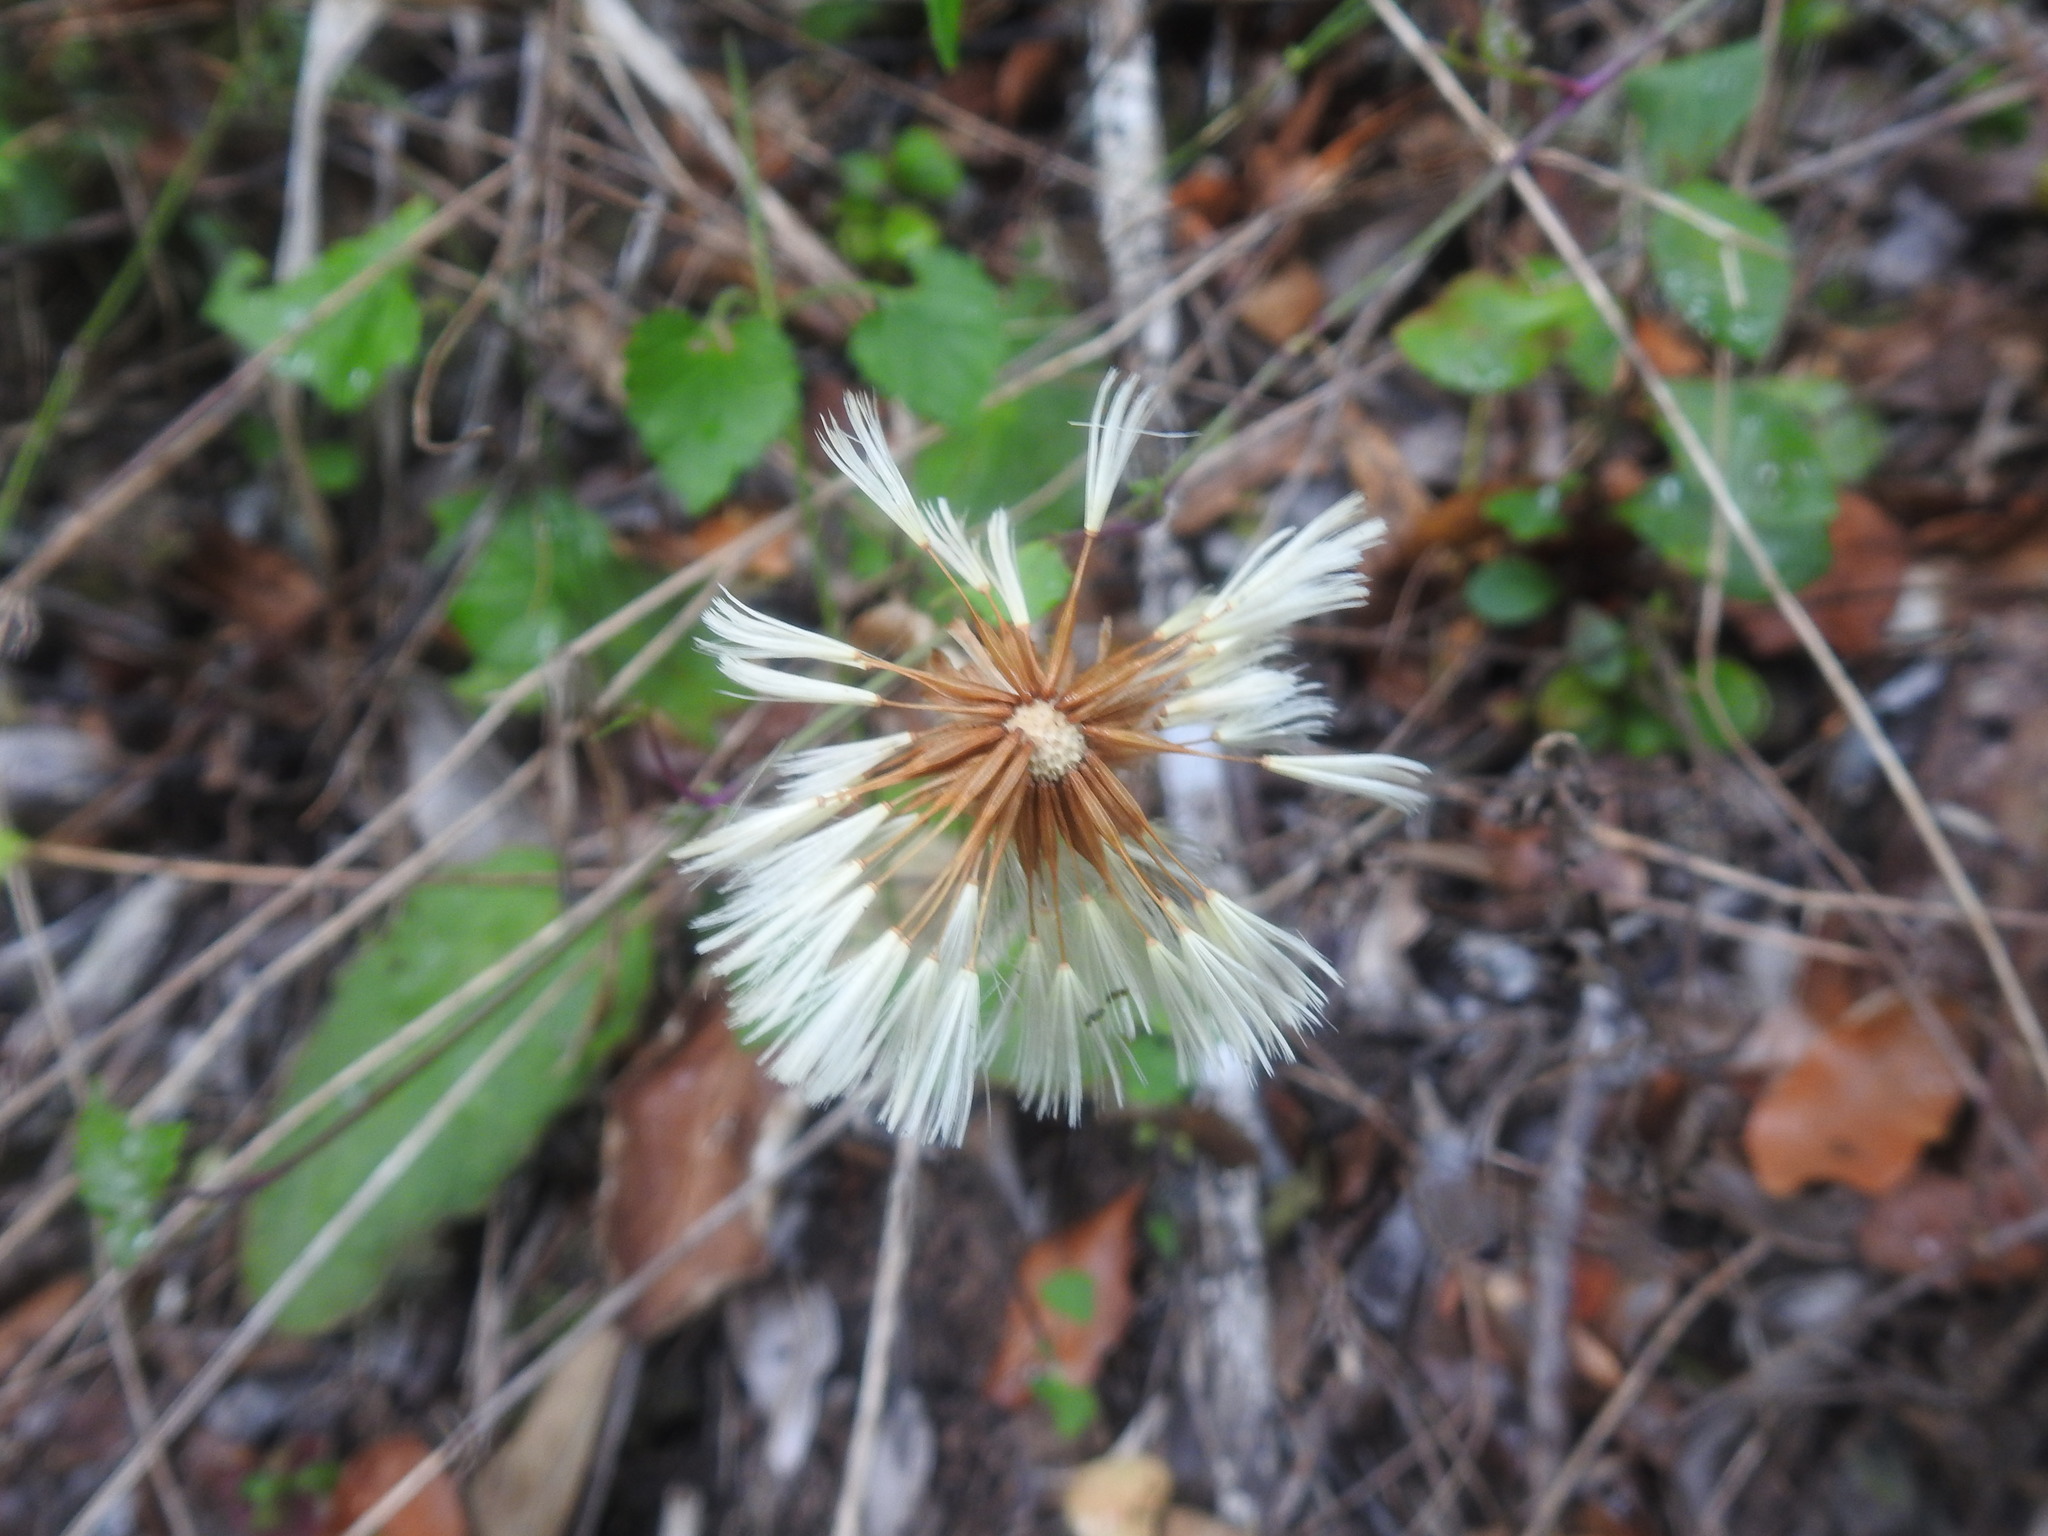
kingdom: Plantae
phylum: Tracheophyta
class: Magnoliopsida
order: Asterales
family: Asteraceae
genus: Piloselloides
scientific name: Piloselloides cordata
